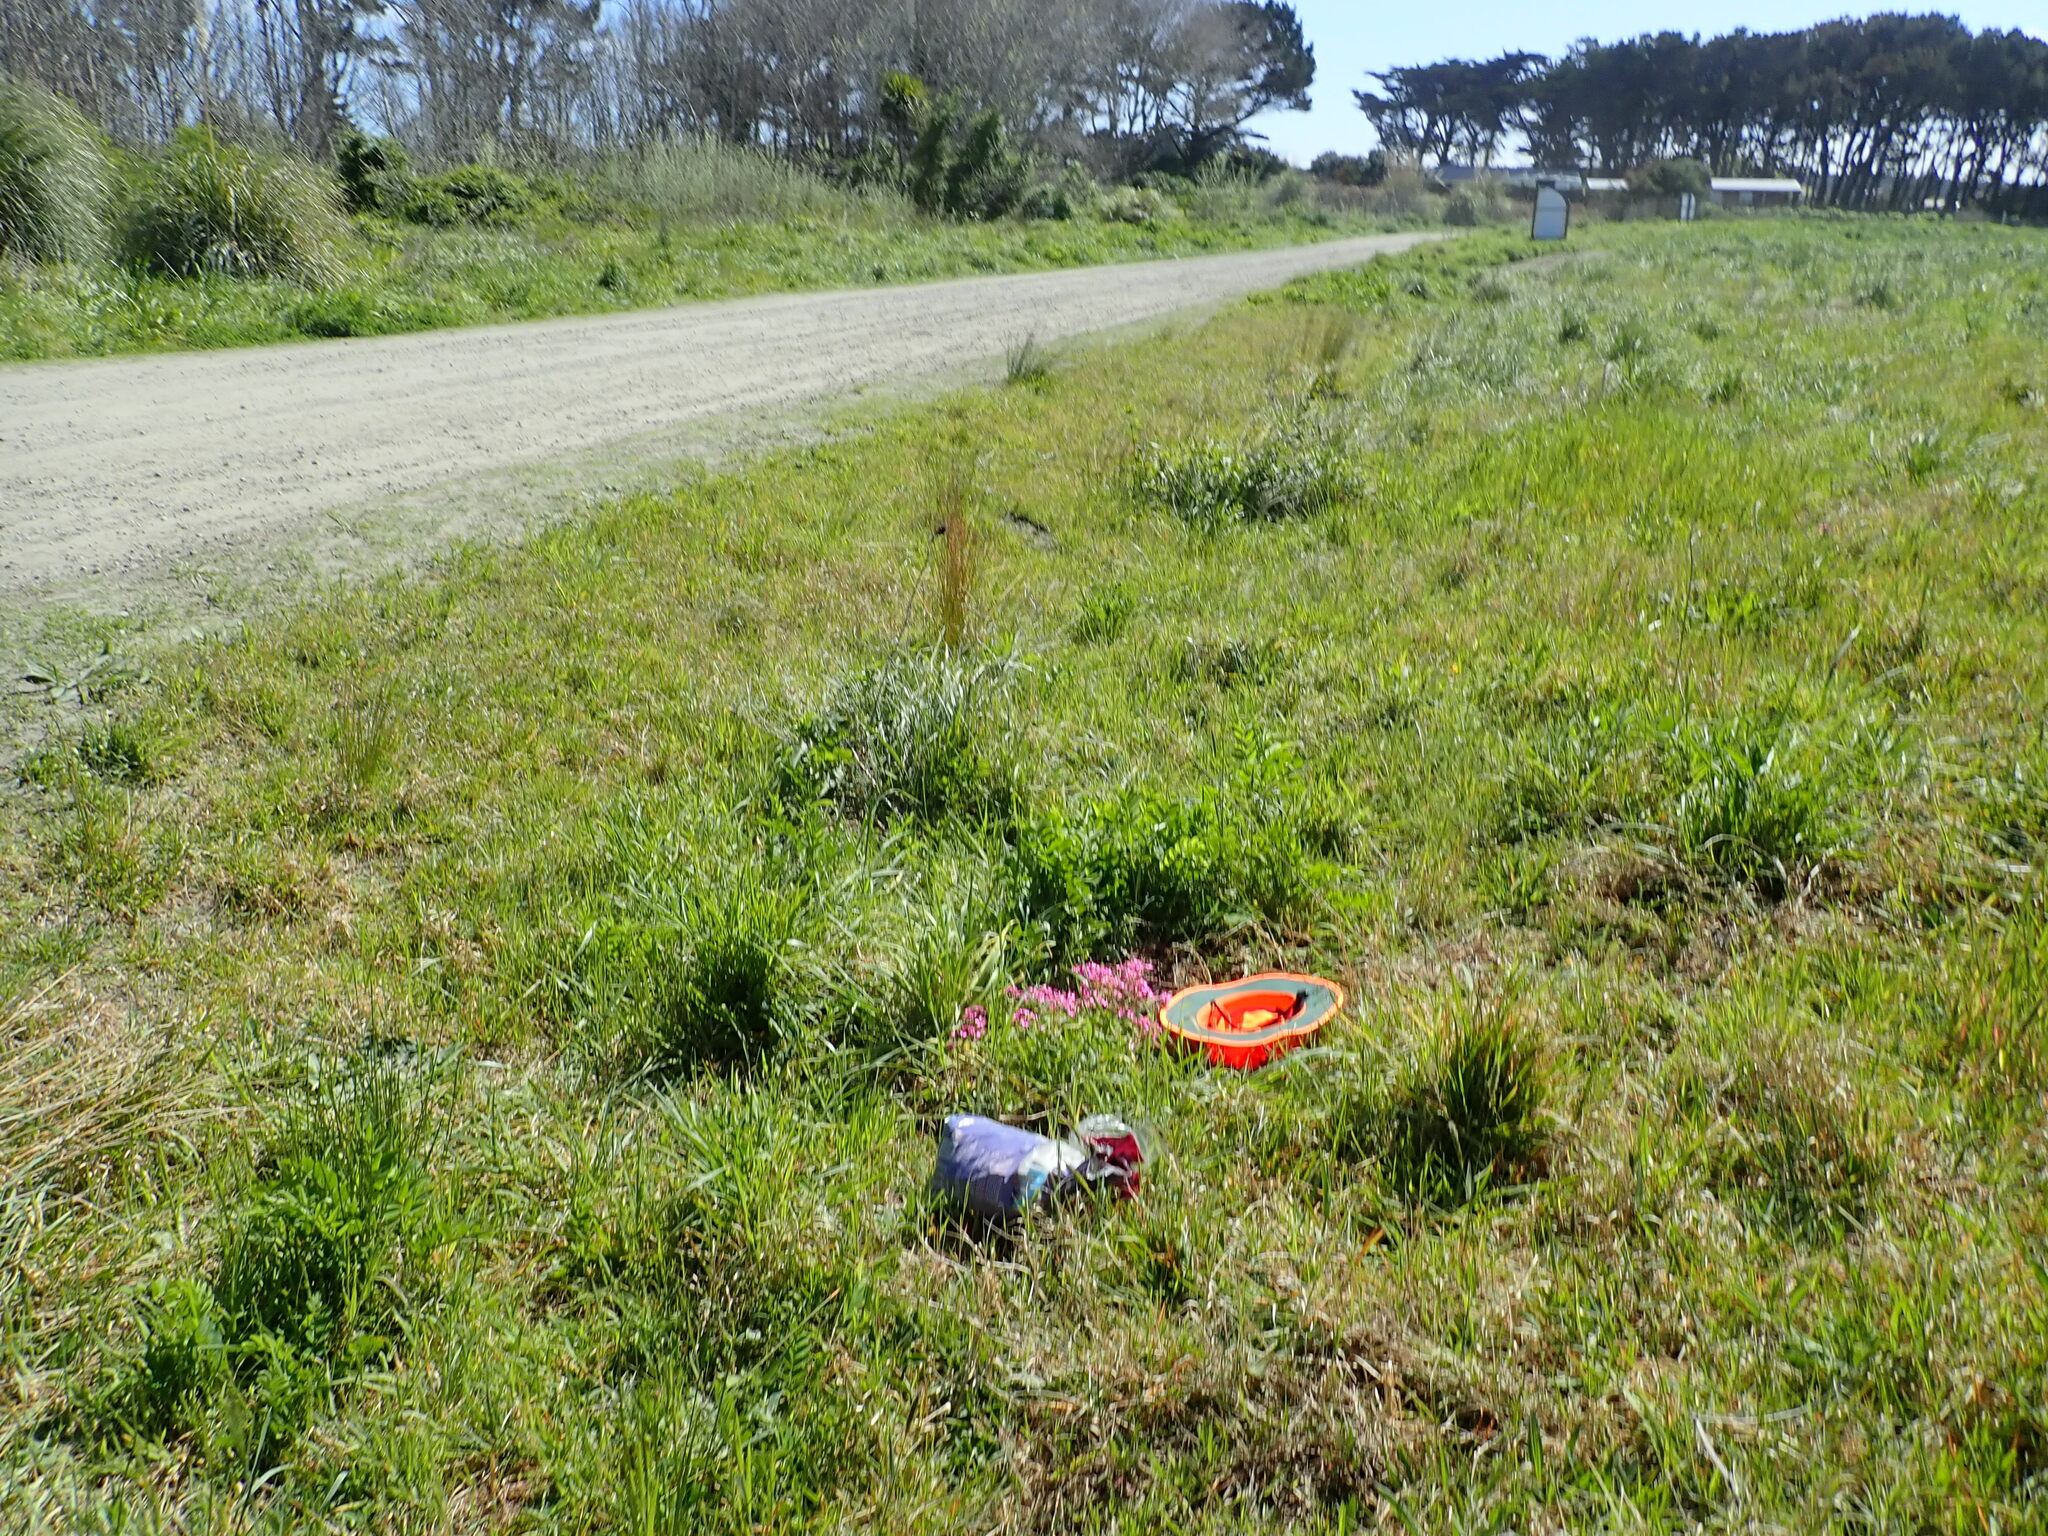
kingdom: Plantae
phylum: Tracheophyta
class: Magnoliopsida
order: Oxalidales
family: Oxalidaceae
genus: Oxalis
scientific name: Oxalis articulata
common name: Pink-sorrel
